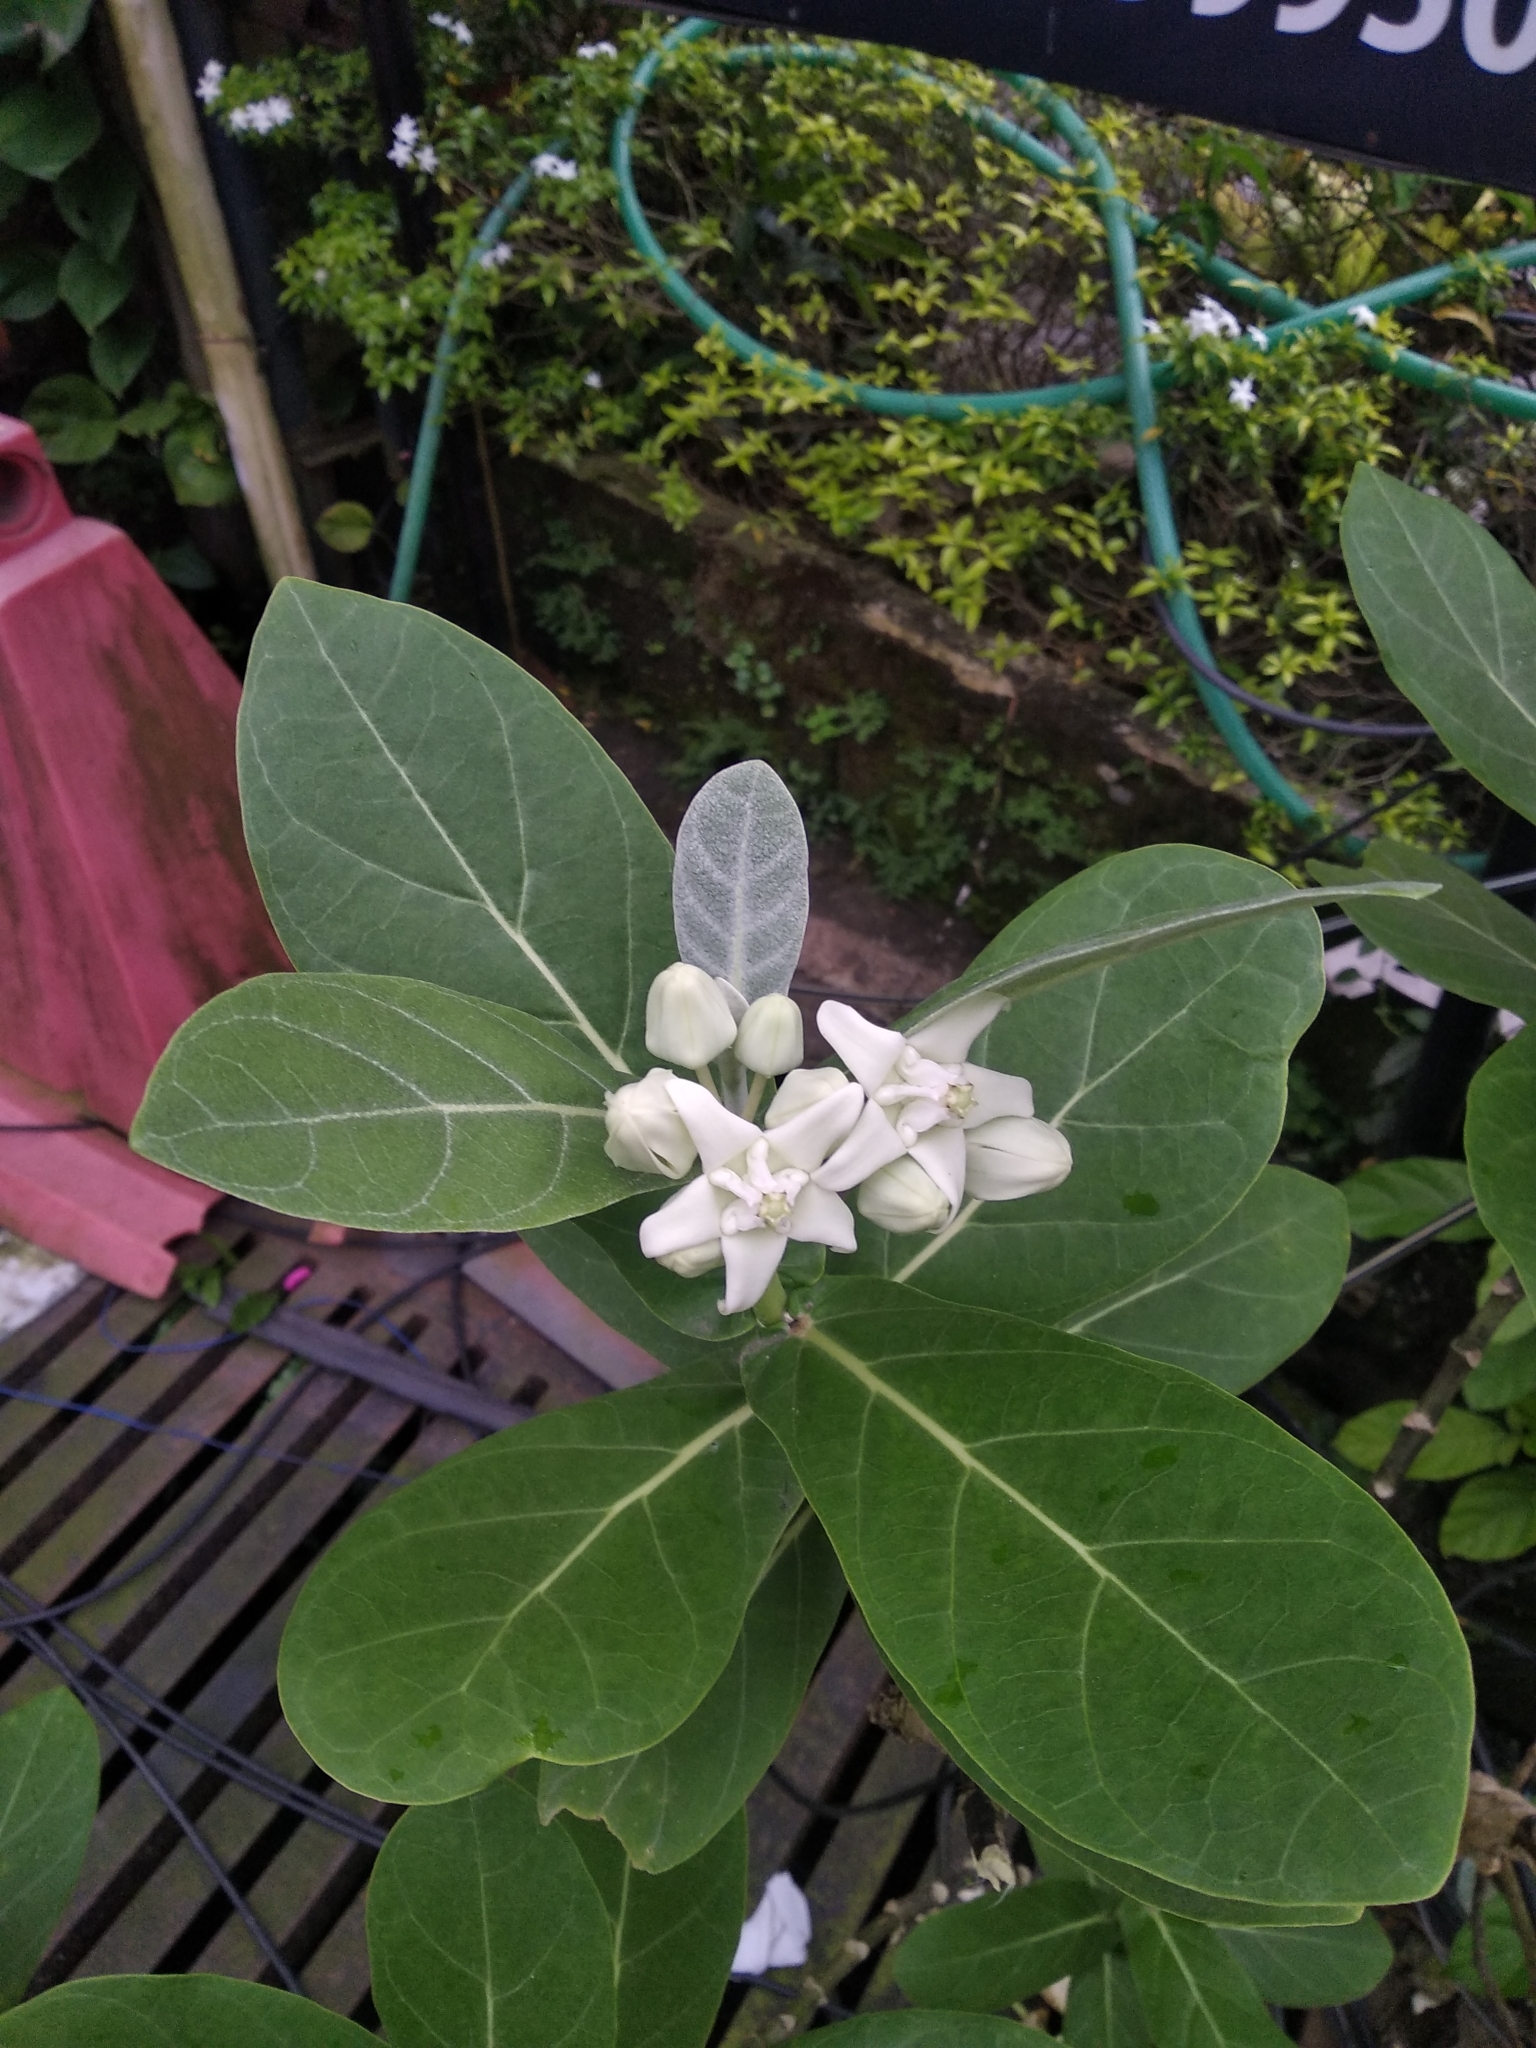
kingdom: Plantae
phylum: Tracheophyta
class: Magnoliopsida
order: Gentianales
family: Apocynaceae
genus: Calotropis
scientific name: Calotropis gigantea
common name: Crown flower
